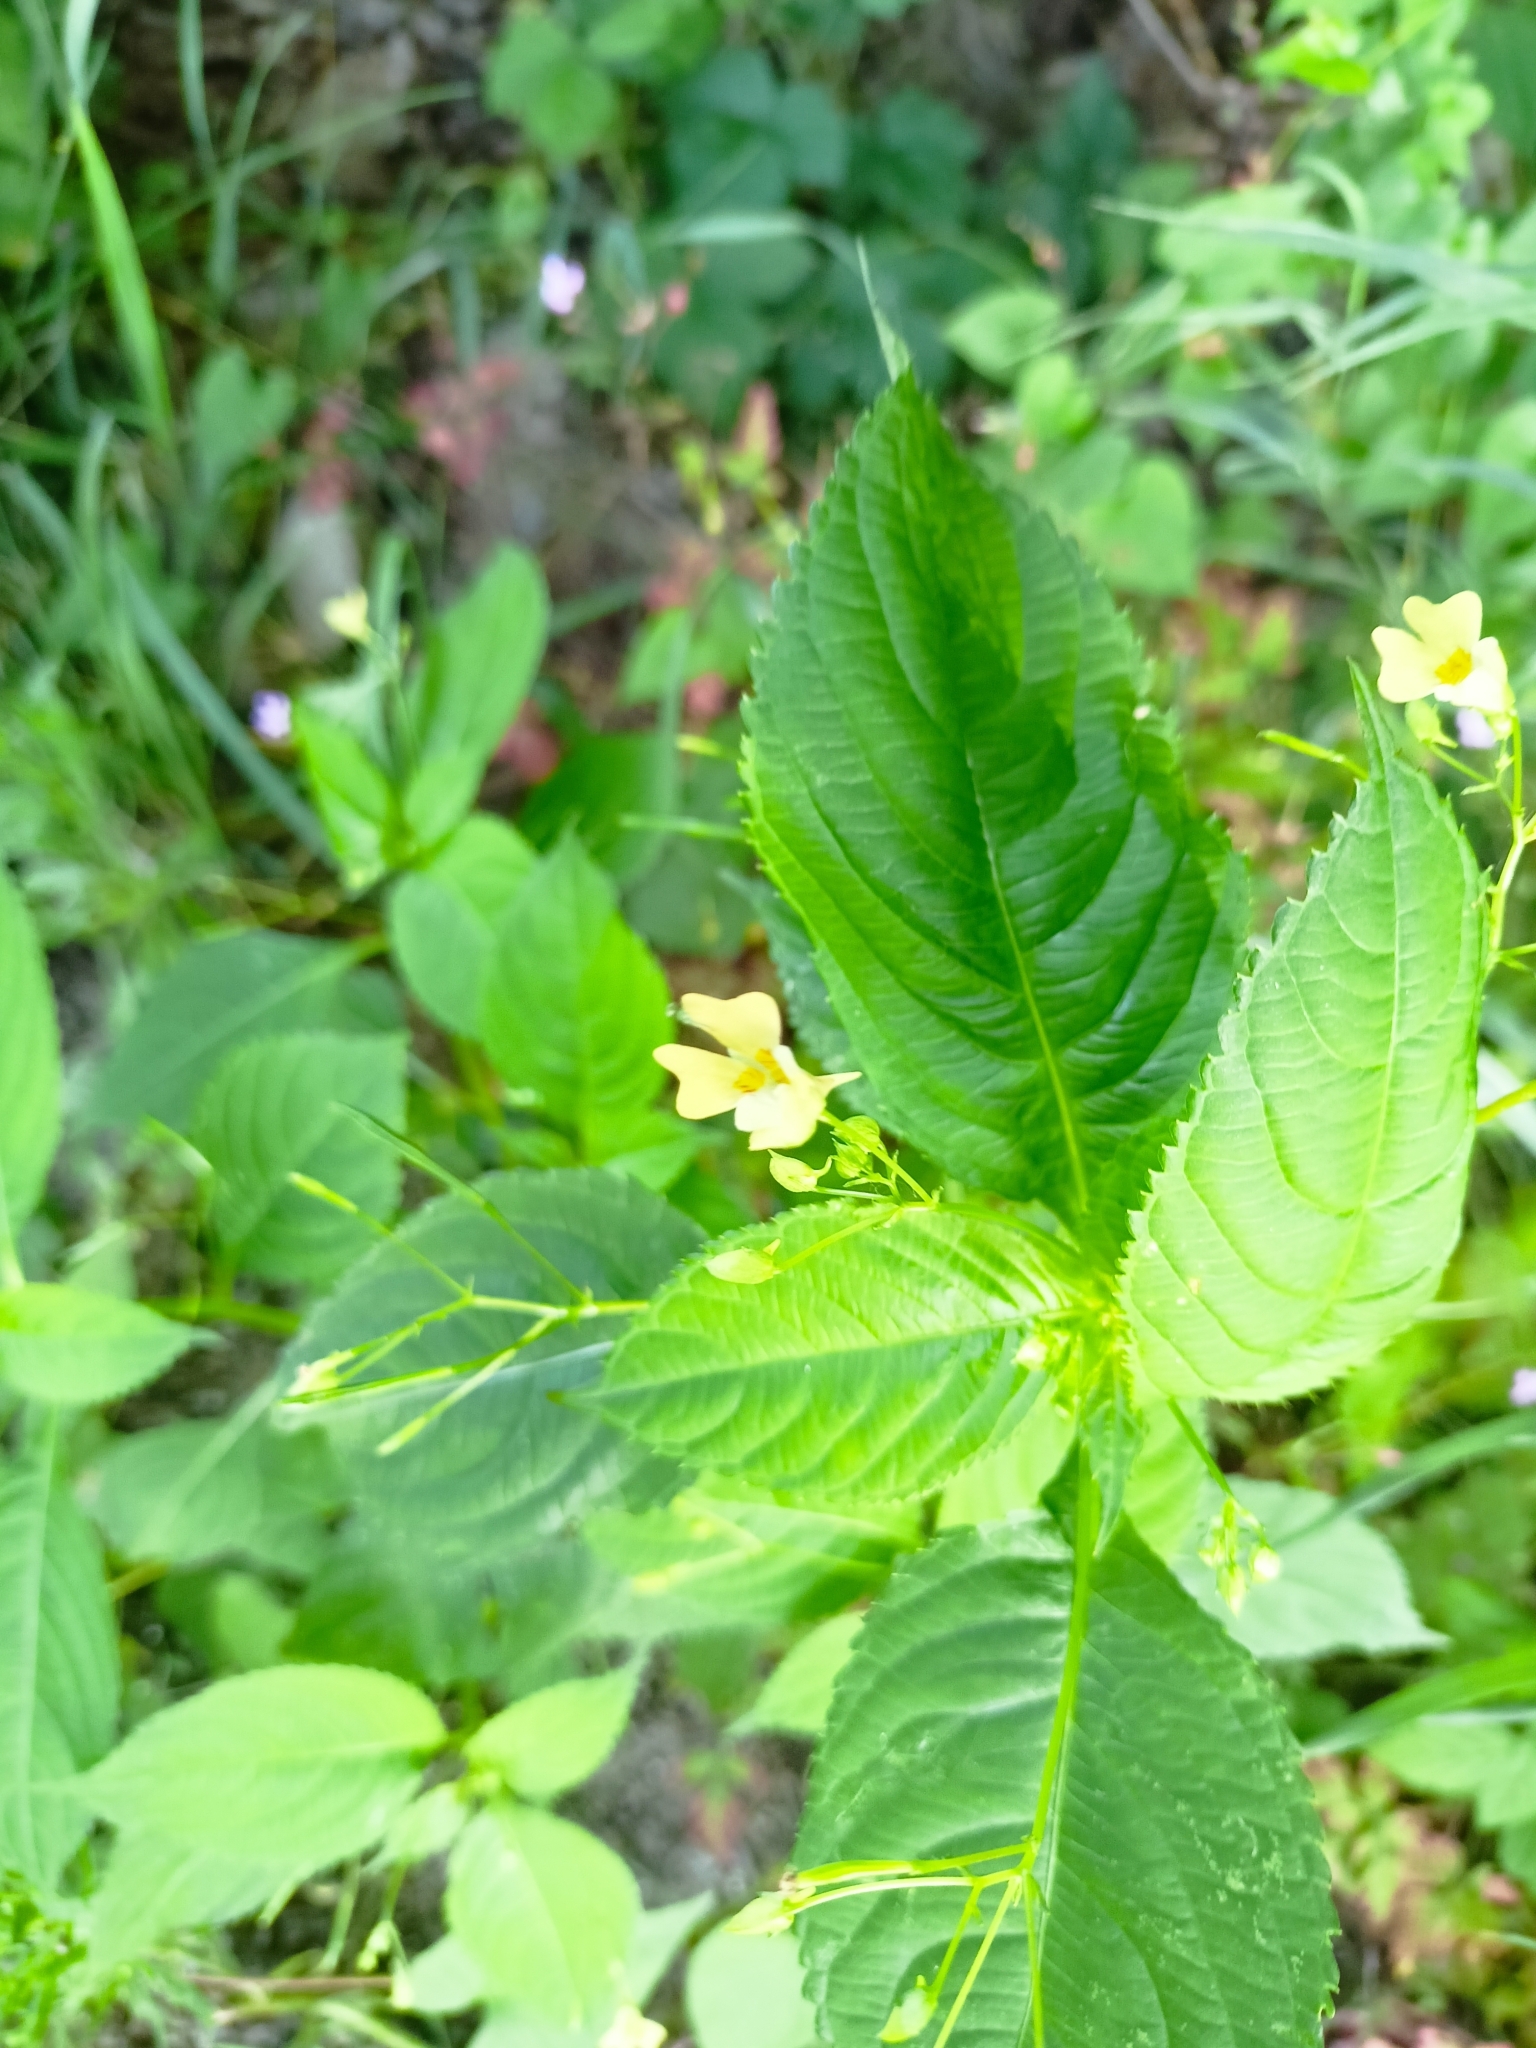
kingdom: Plantae
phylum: Tracheophyta
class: Magnoliopsida
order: Ericales
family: Balsaminaceae
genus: Impatiens
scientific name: Impatiens parviflora
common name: Small balsam
